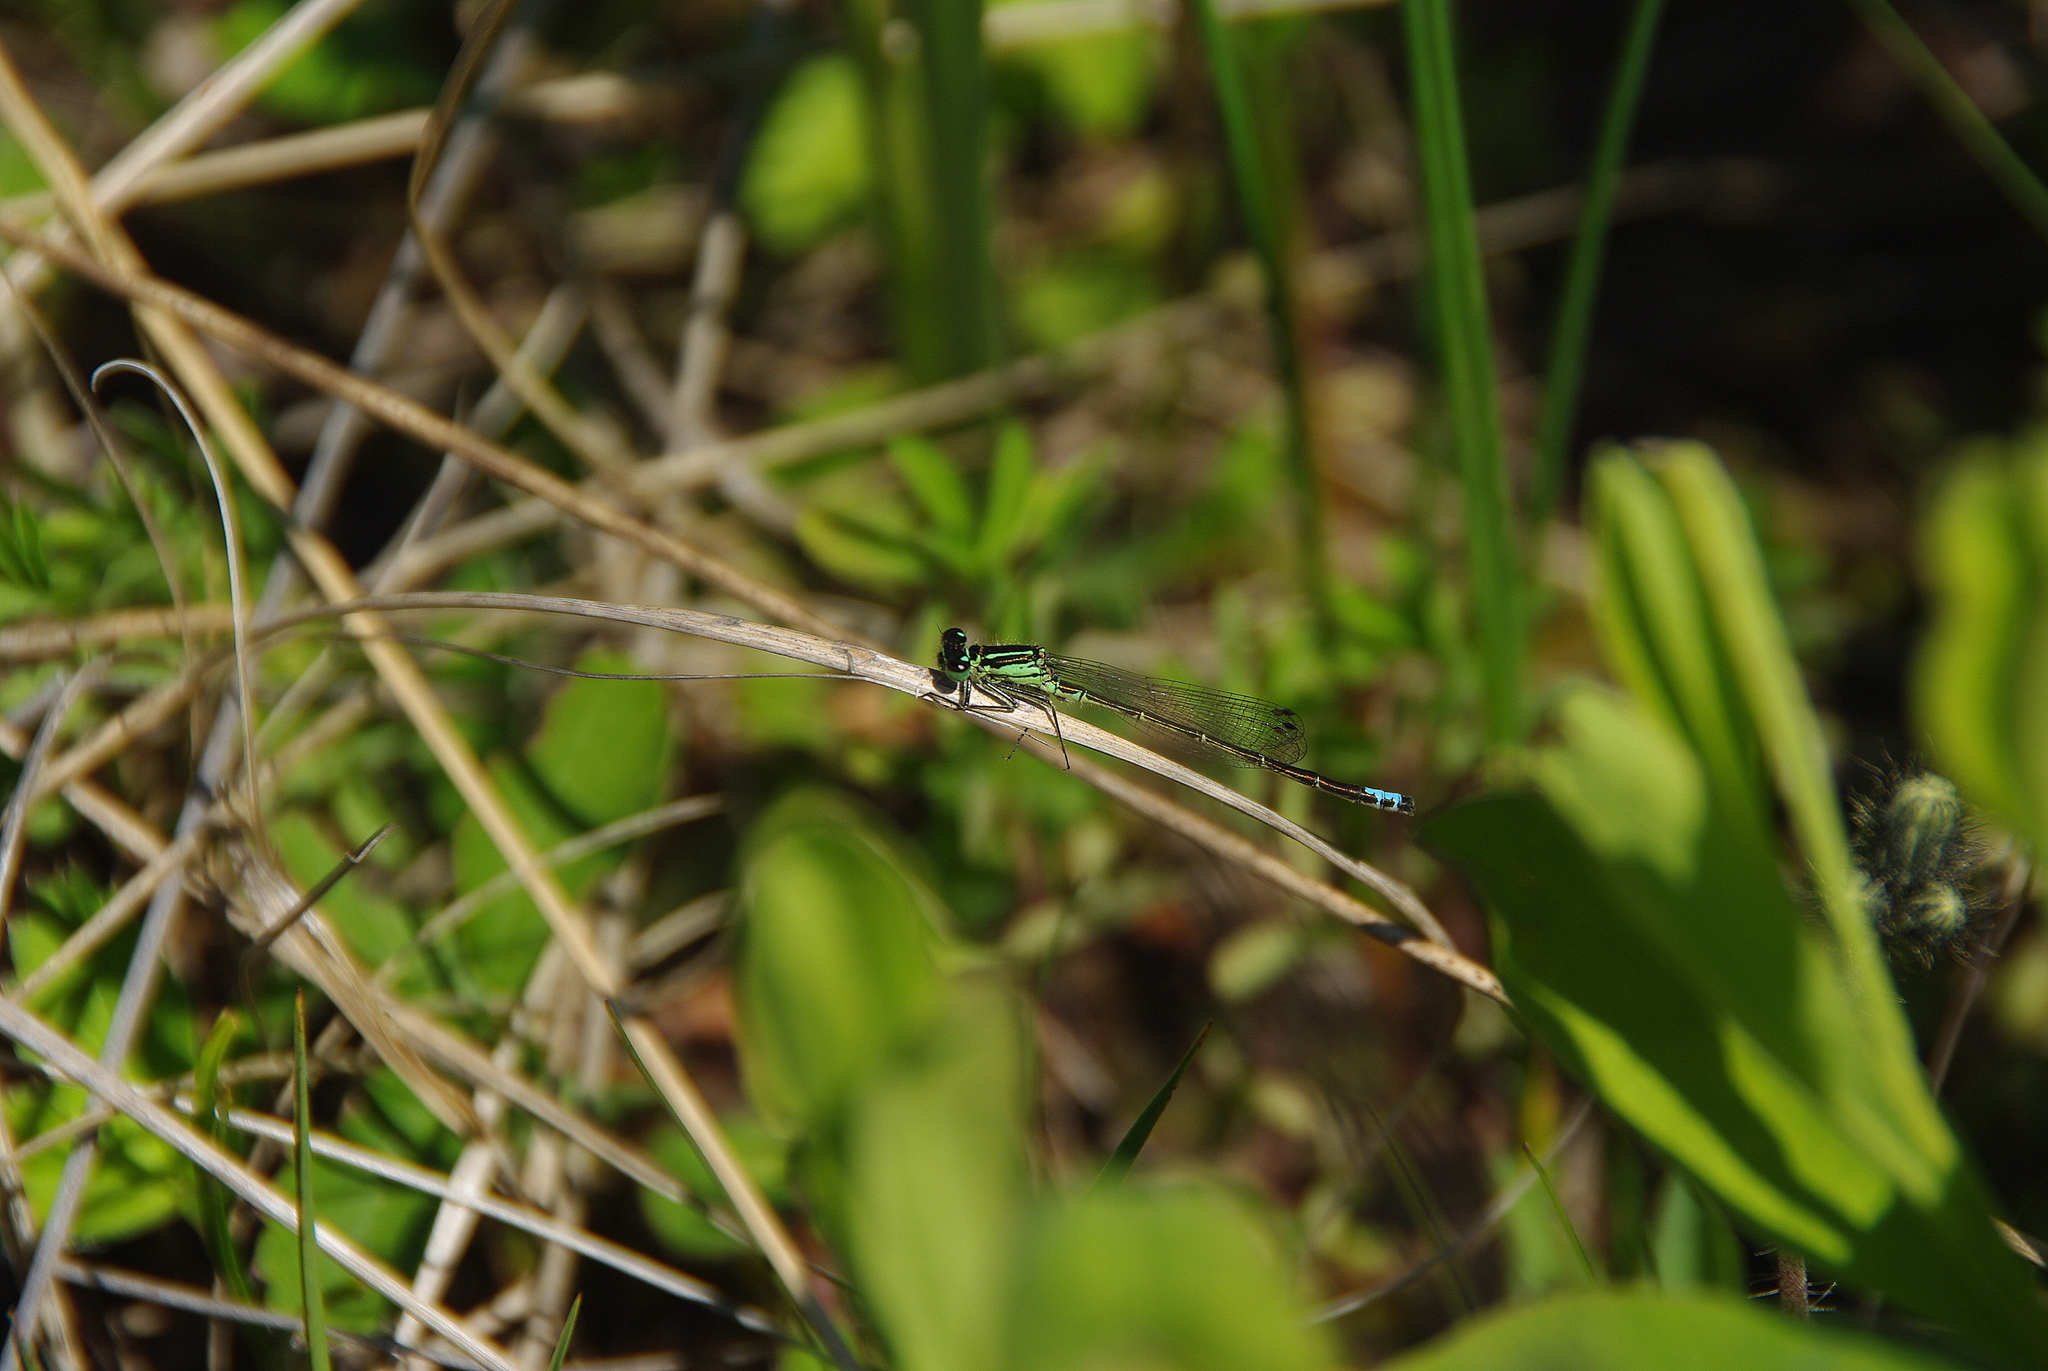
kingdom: Animalia
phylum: Arthropoda
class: Insecta
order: Odonata
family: Coenagrionidae
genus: Ischnura
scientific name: Ischnura verticalis
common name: Eastern forktail
